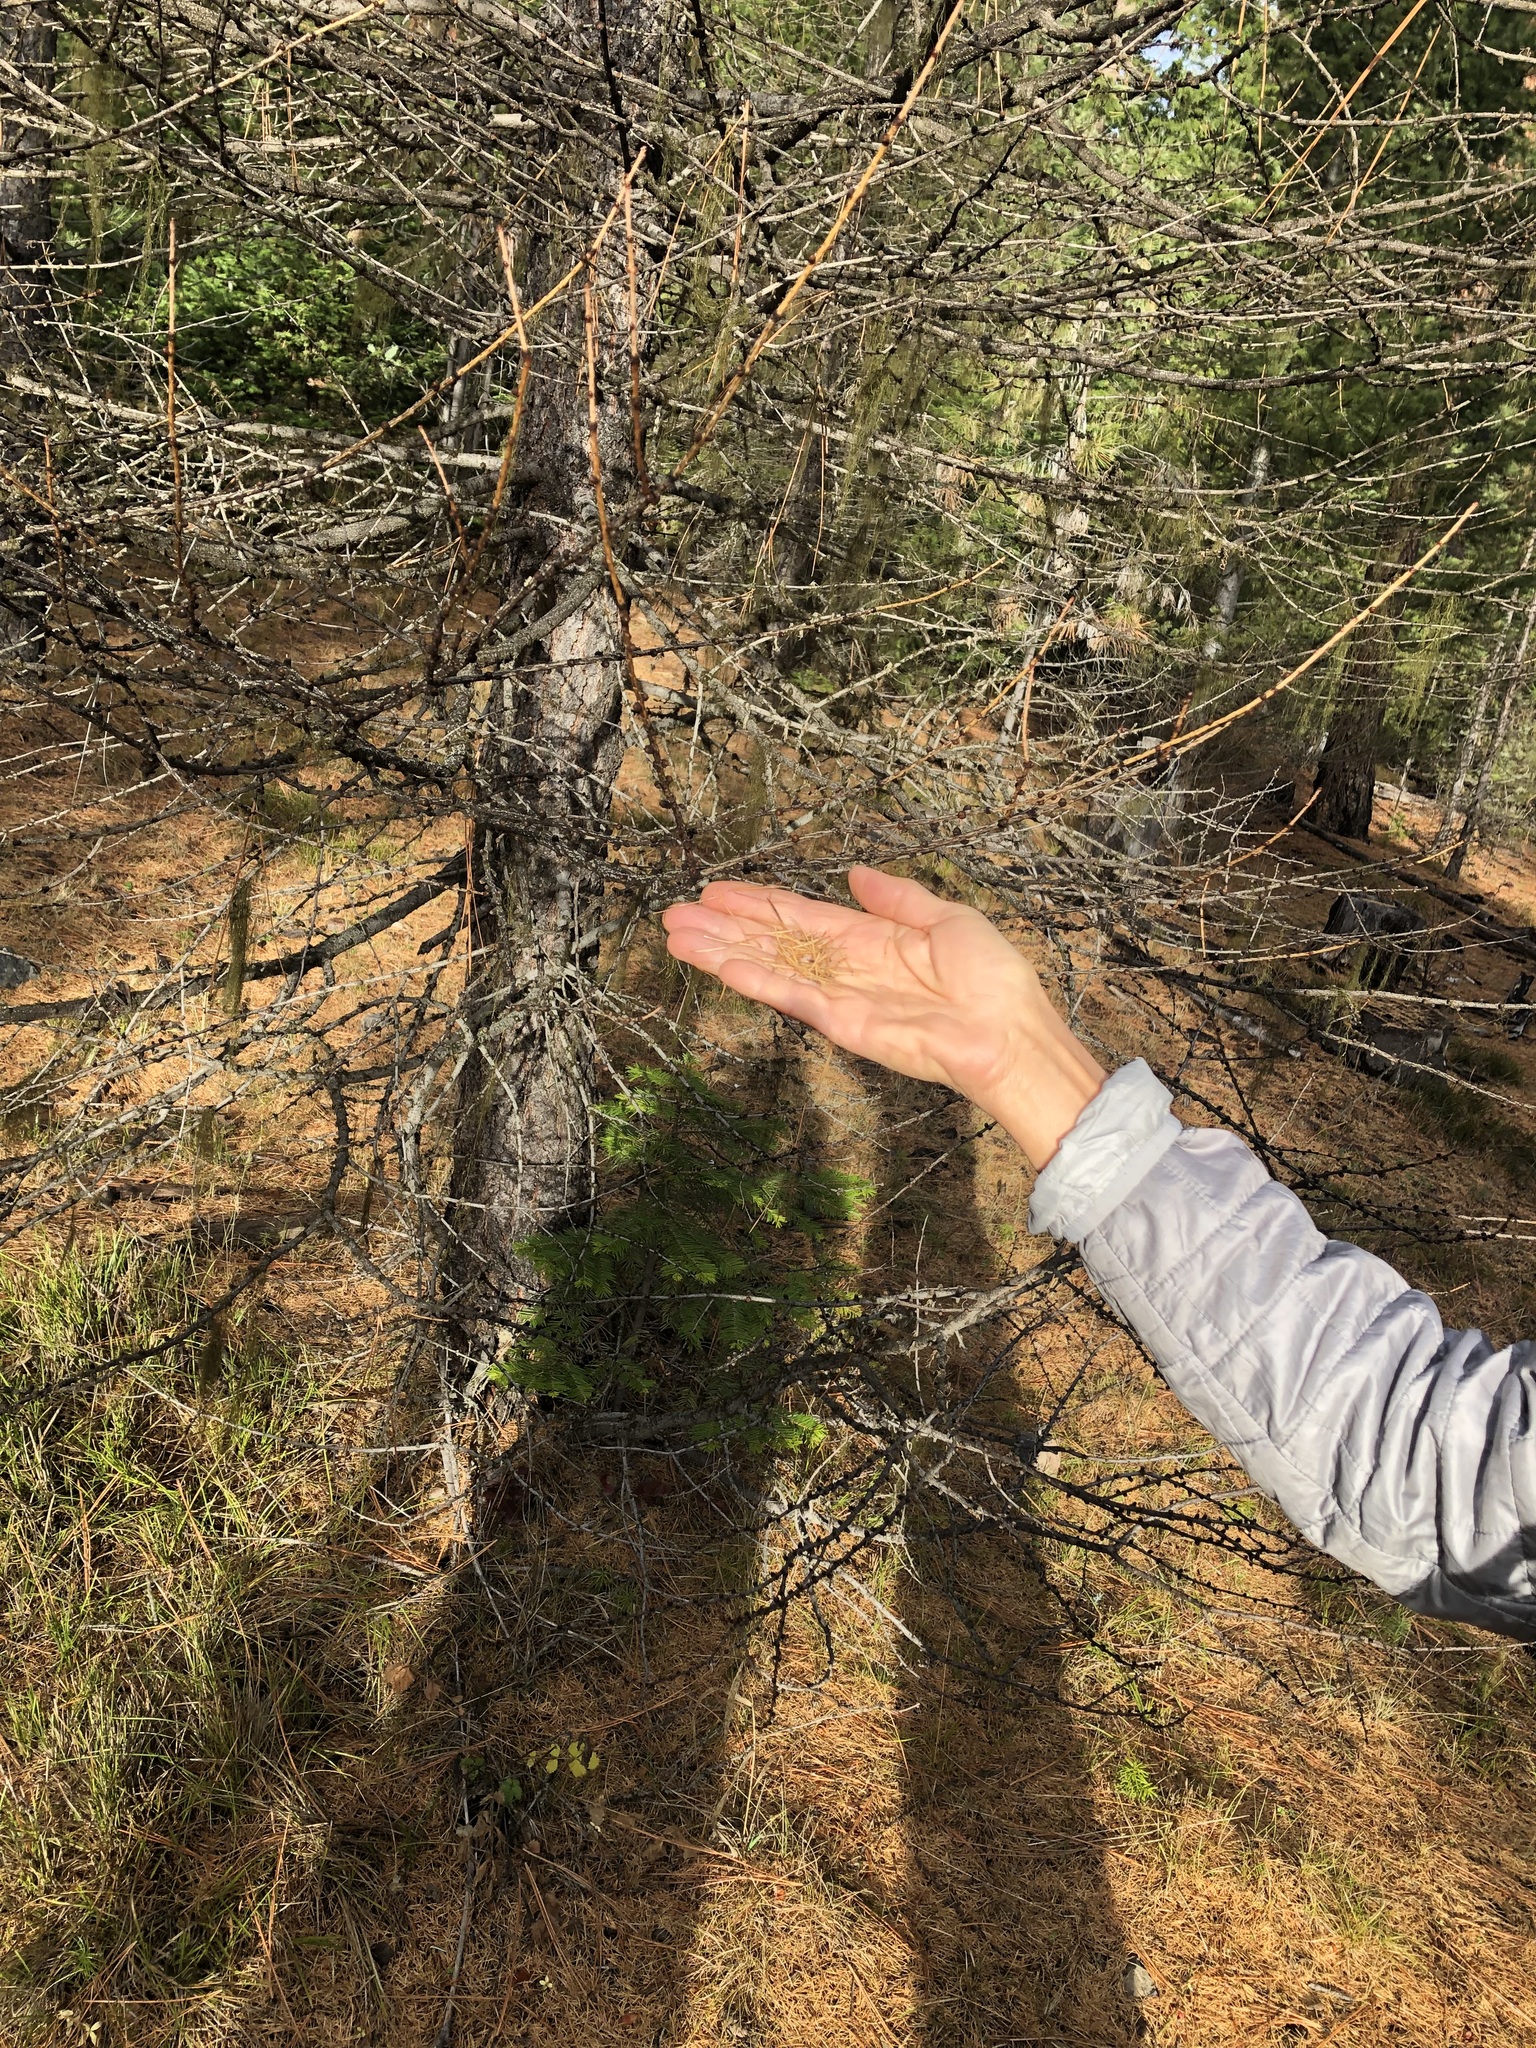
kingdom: Plantae
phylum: Tracheophyta
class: Pinopsida
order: Pinales
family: Pinaceae
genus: Larix
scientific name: Larix occidentalis
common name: Western larch
